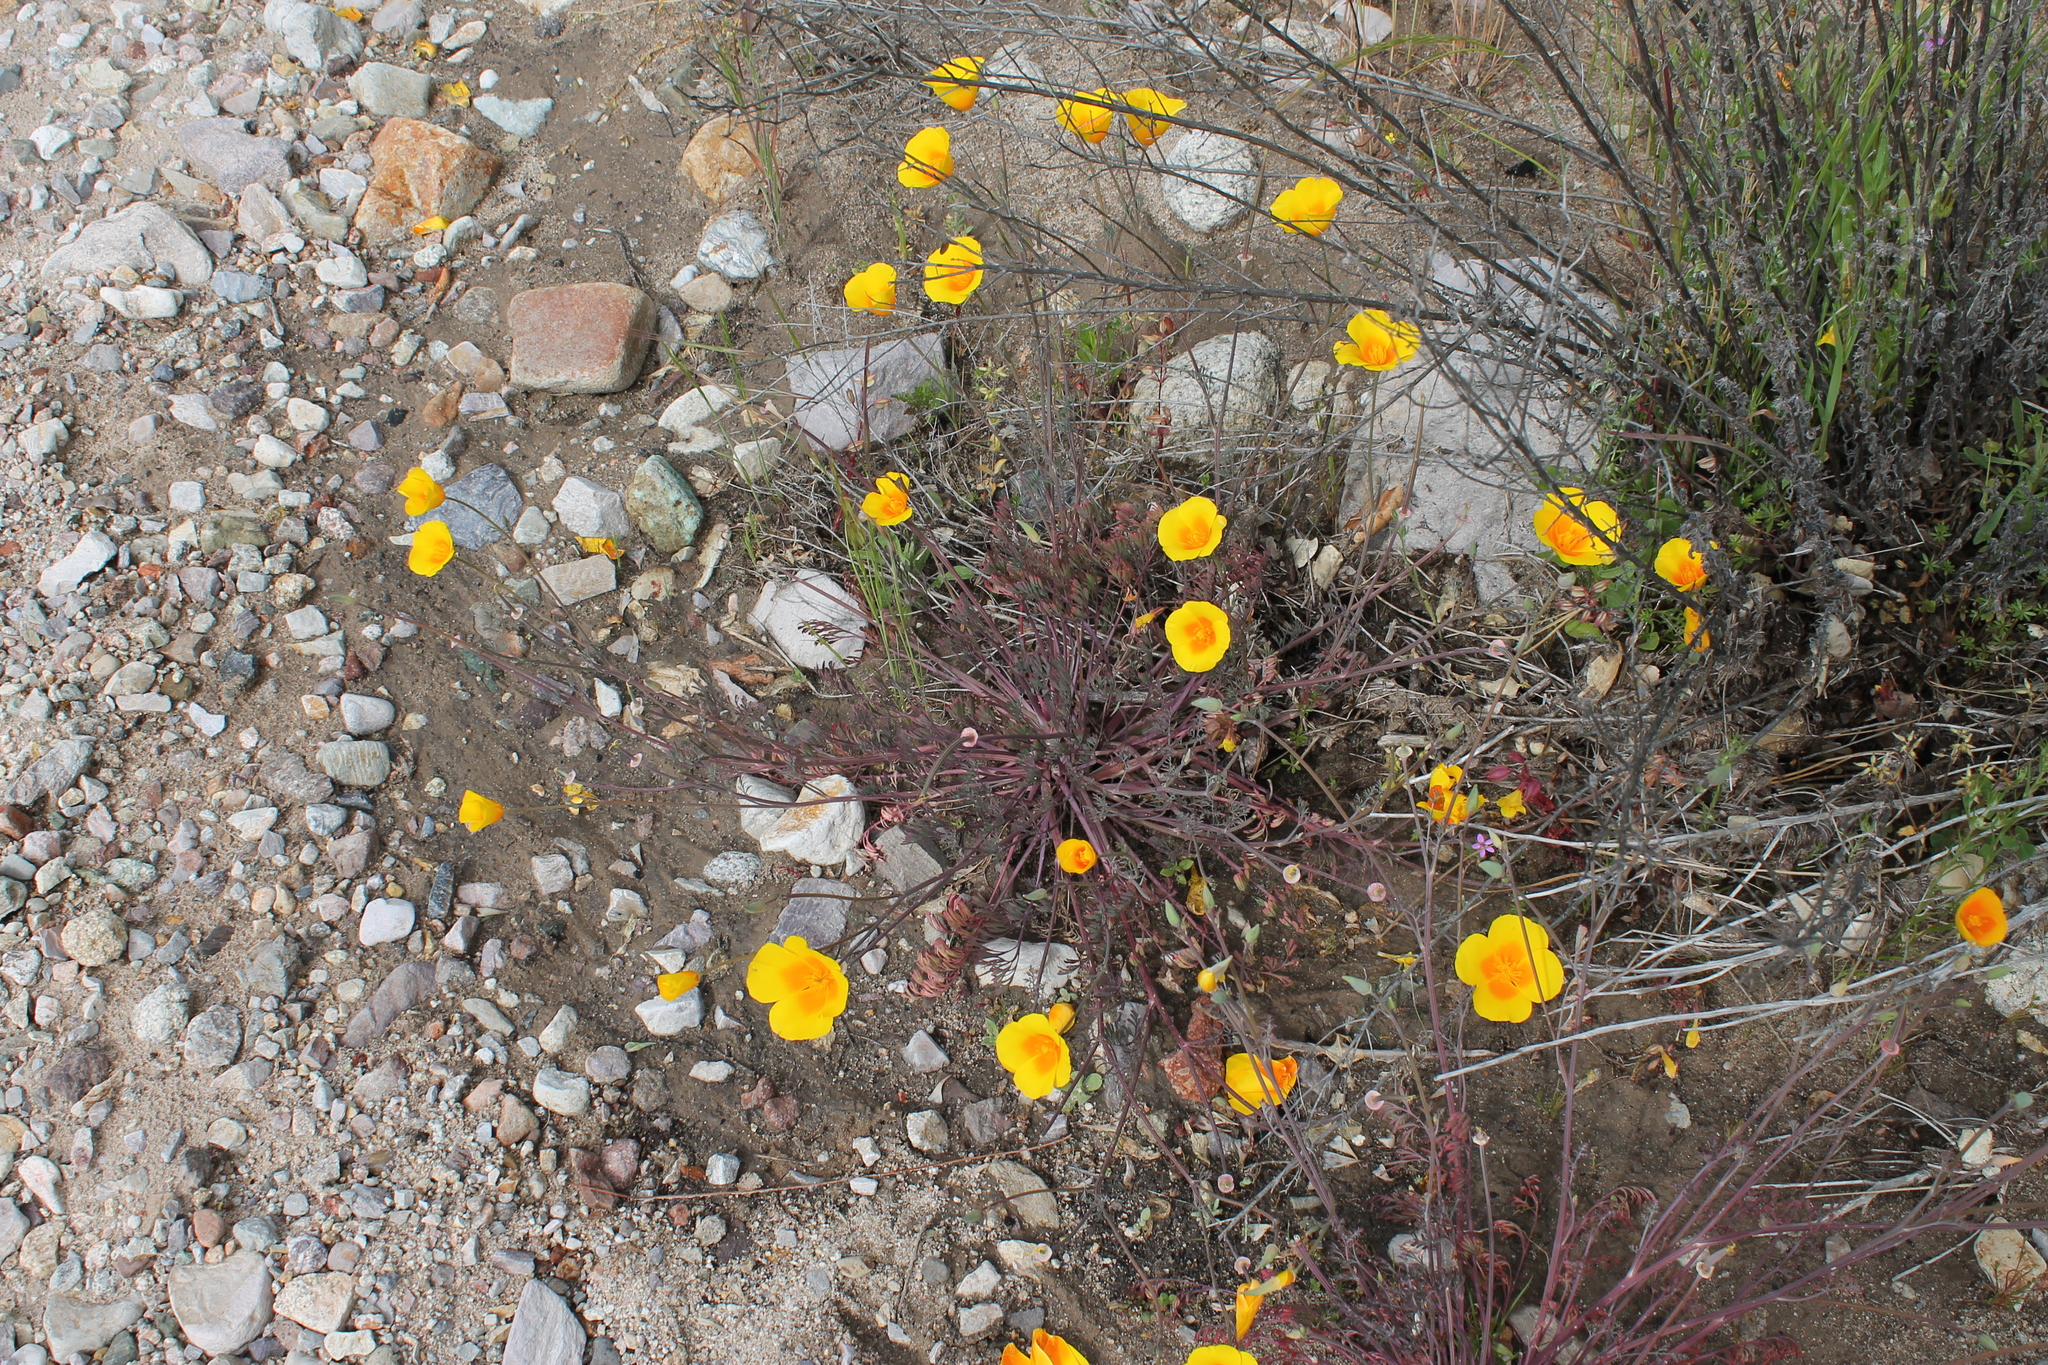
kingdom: Plantae
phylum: Tracheophyta
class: Magnoliopsida
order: Ranunculales
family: Papaveraceae
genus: Eschscholzia
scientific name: Eschscholzia californica
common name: California poppy
